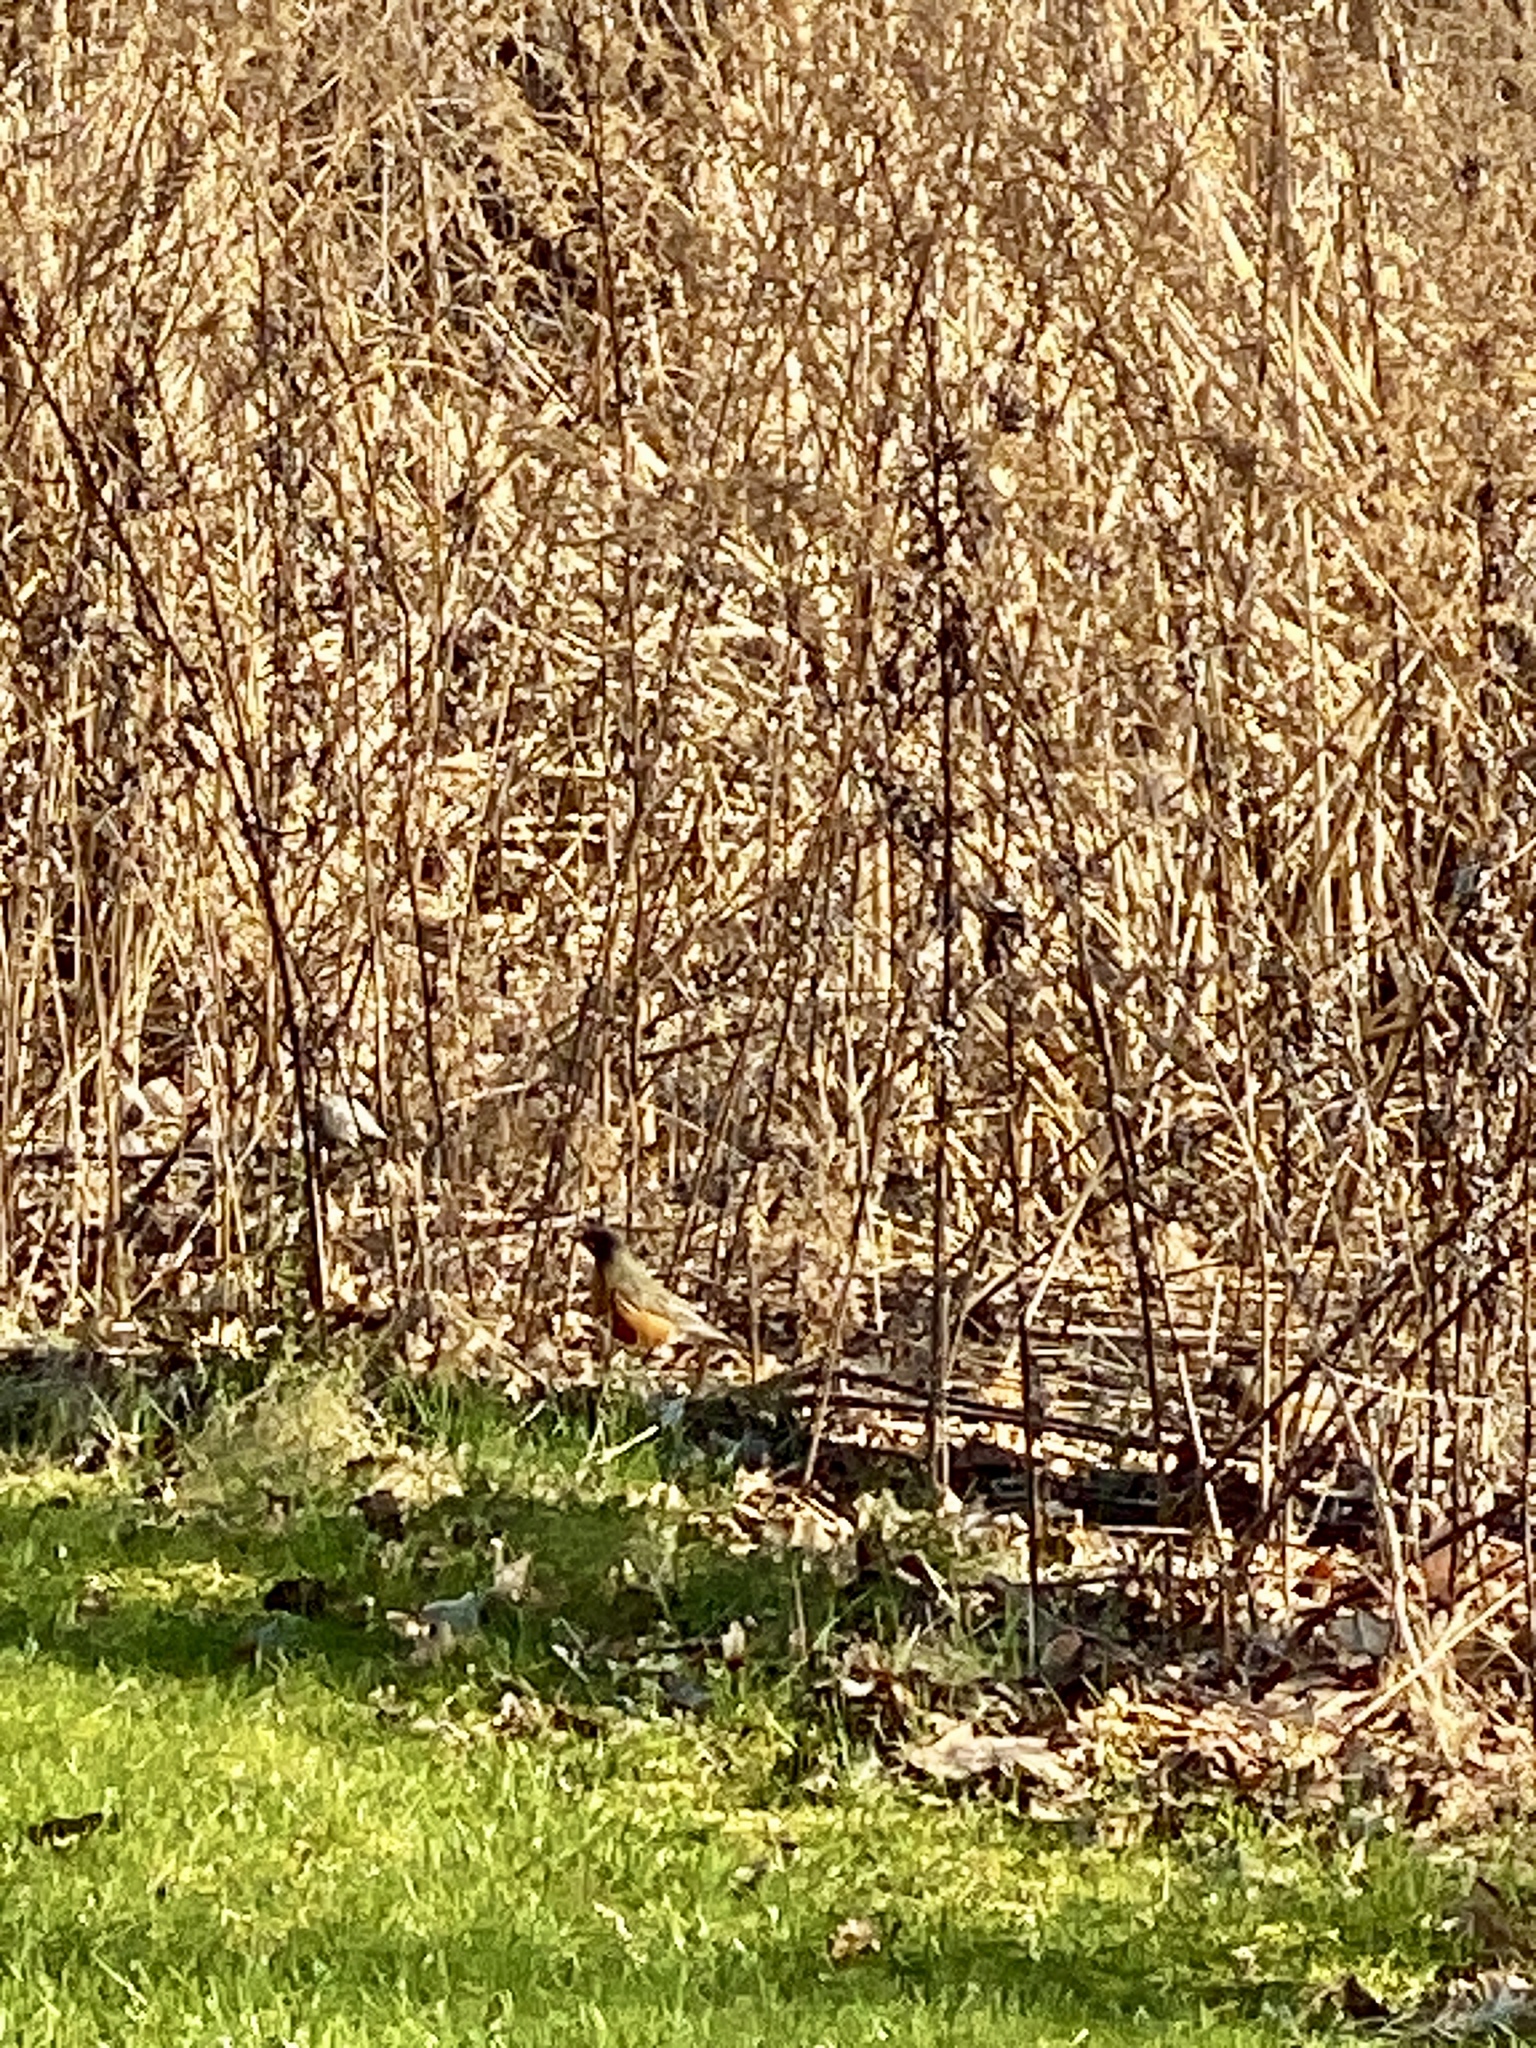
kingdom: Animalia
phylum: Chordata
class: Aves
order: Passeriformes
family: Turdidae
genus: Turdus
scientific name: Turdus migratorius
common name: American robin
